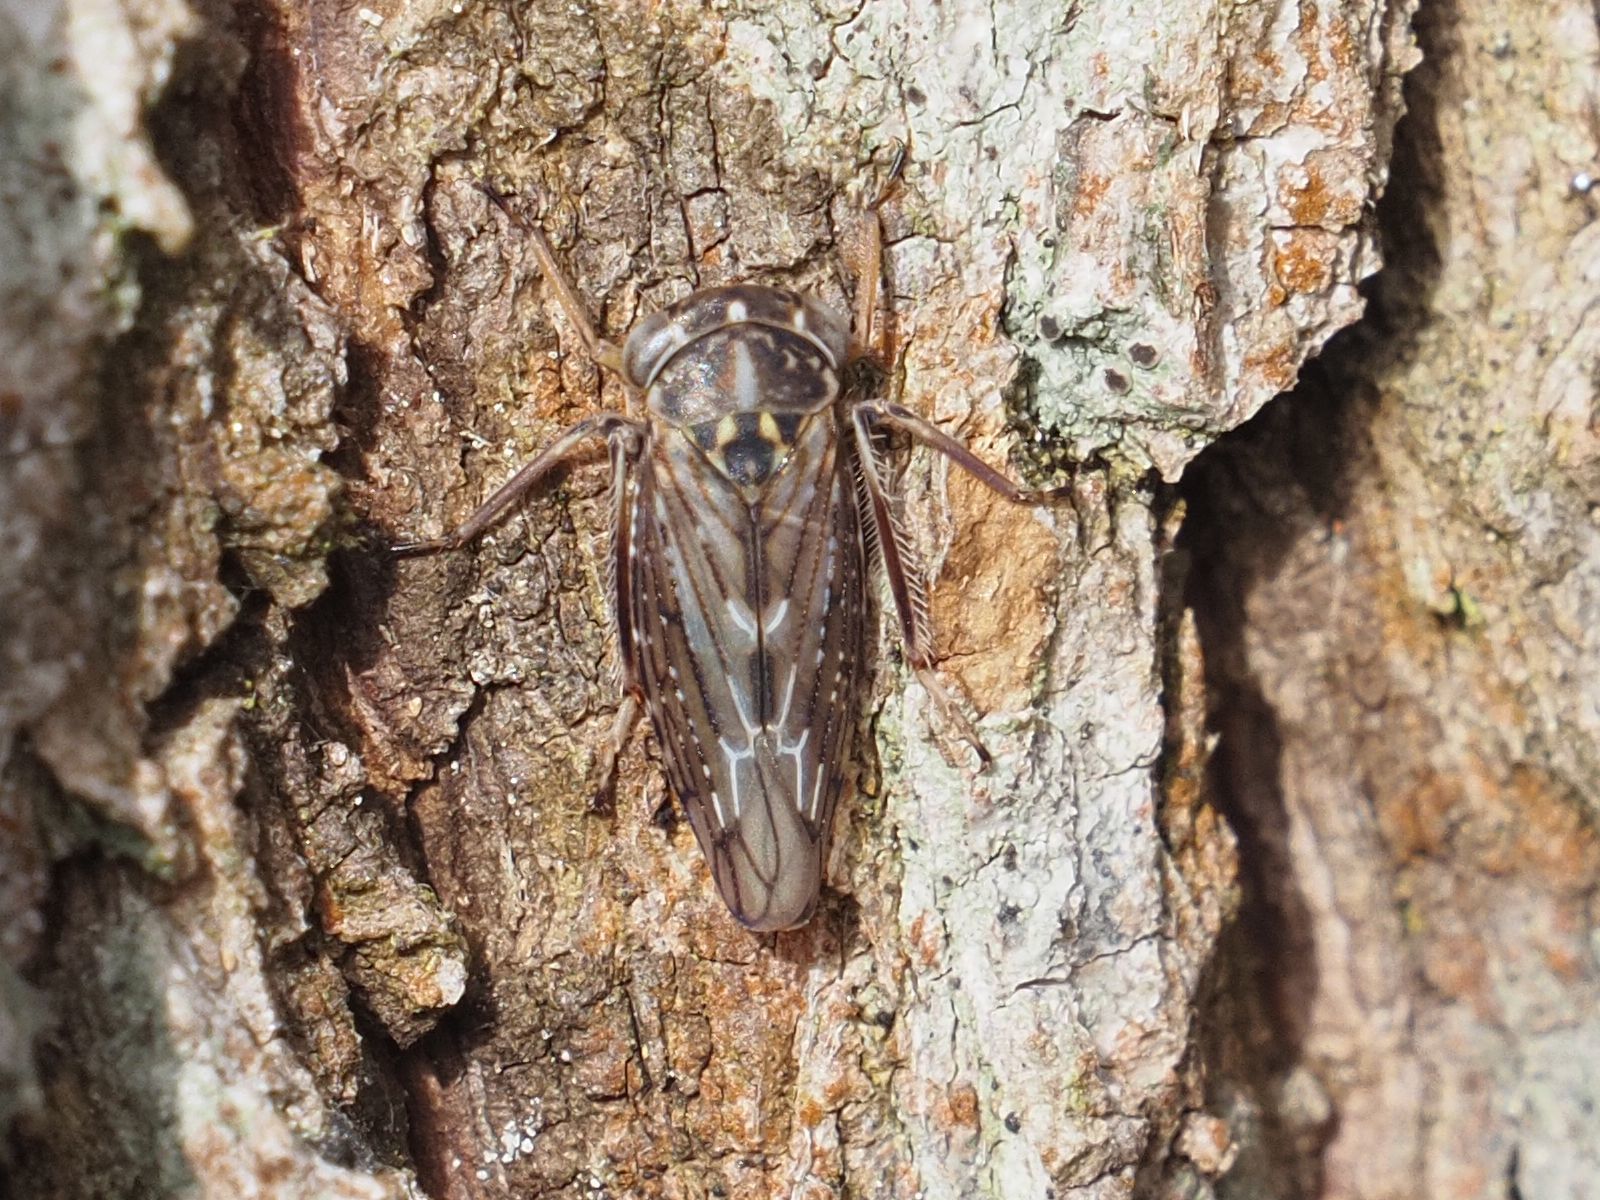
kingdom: Animalia
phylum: Arthropoda
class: Insecta
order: Hemiptera
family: Cicadellidae
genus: Idiocerus
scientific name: Idiocerus herrichii
